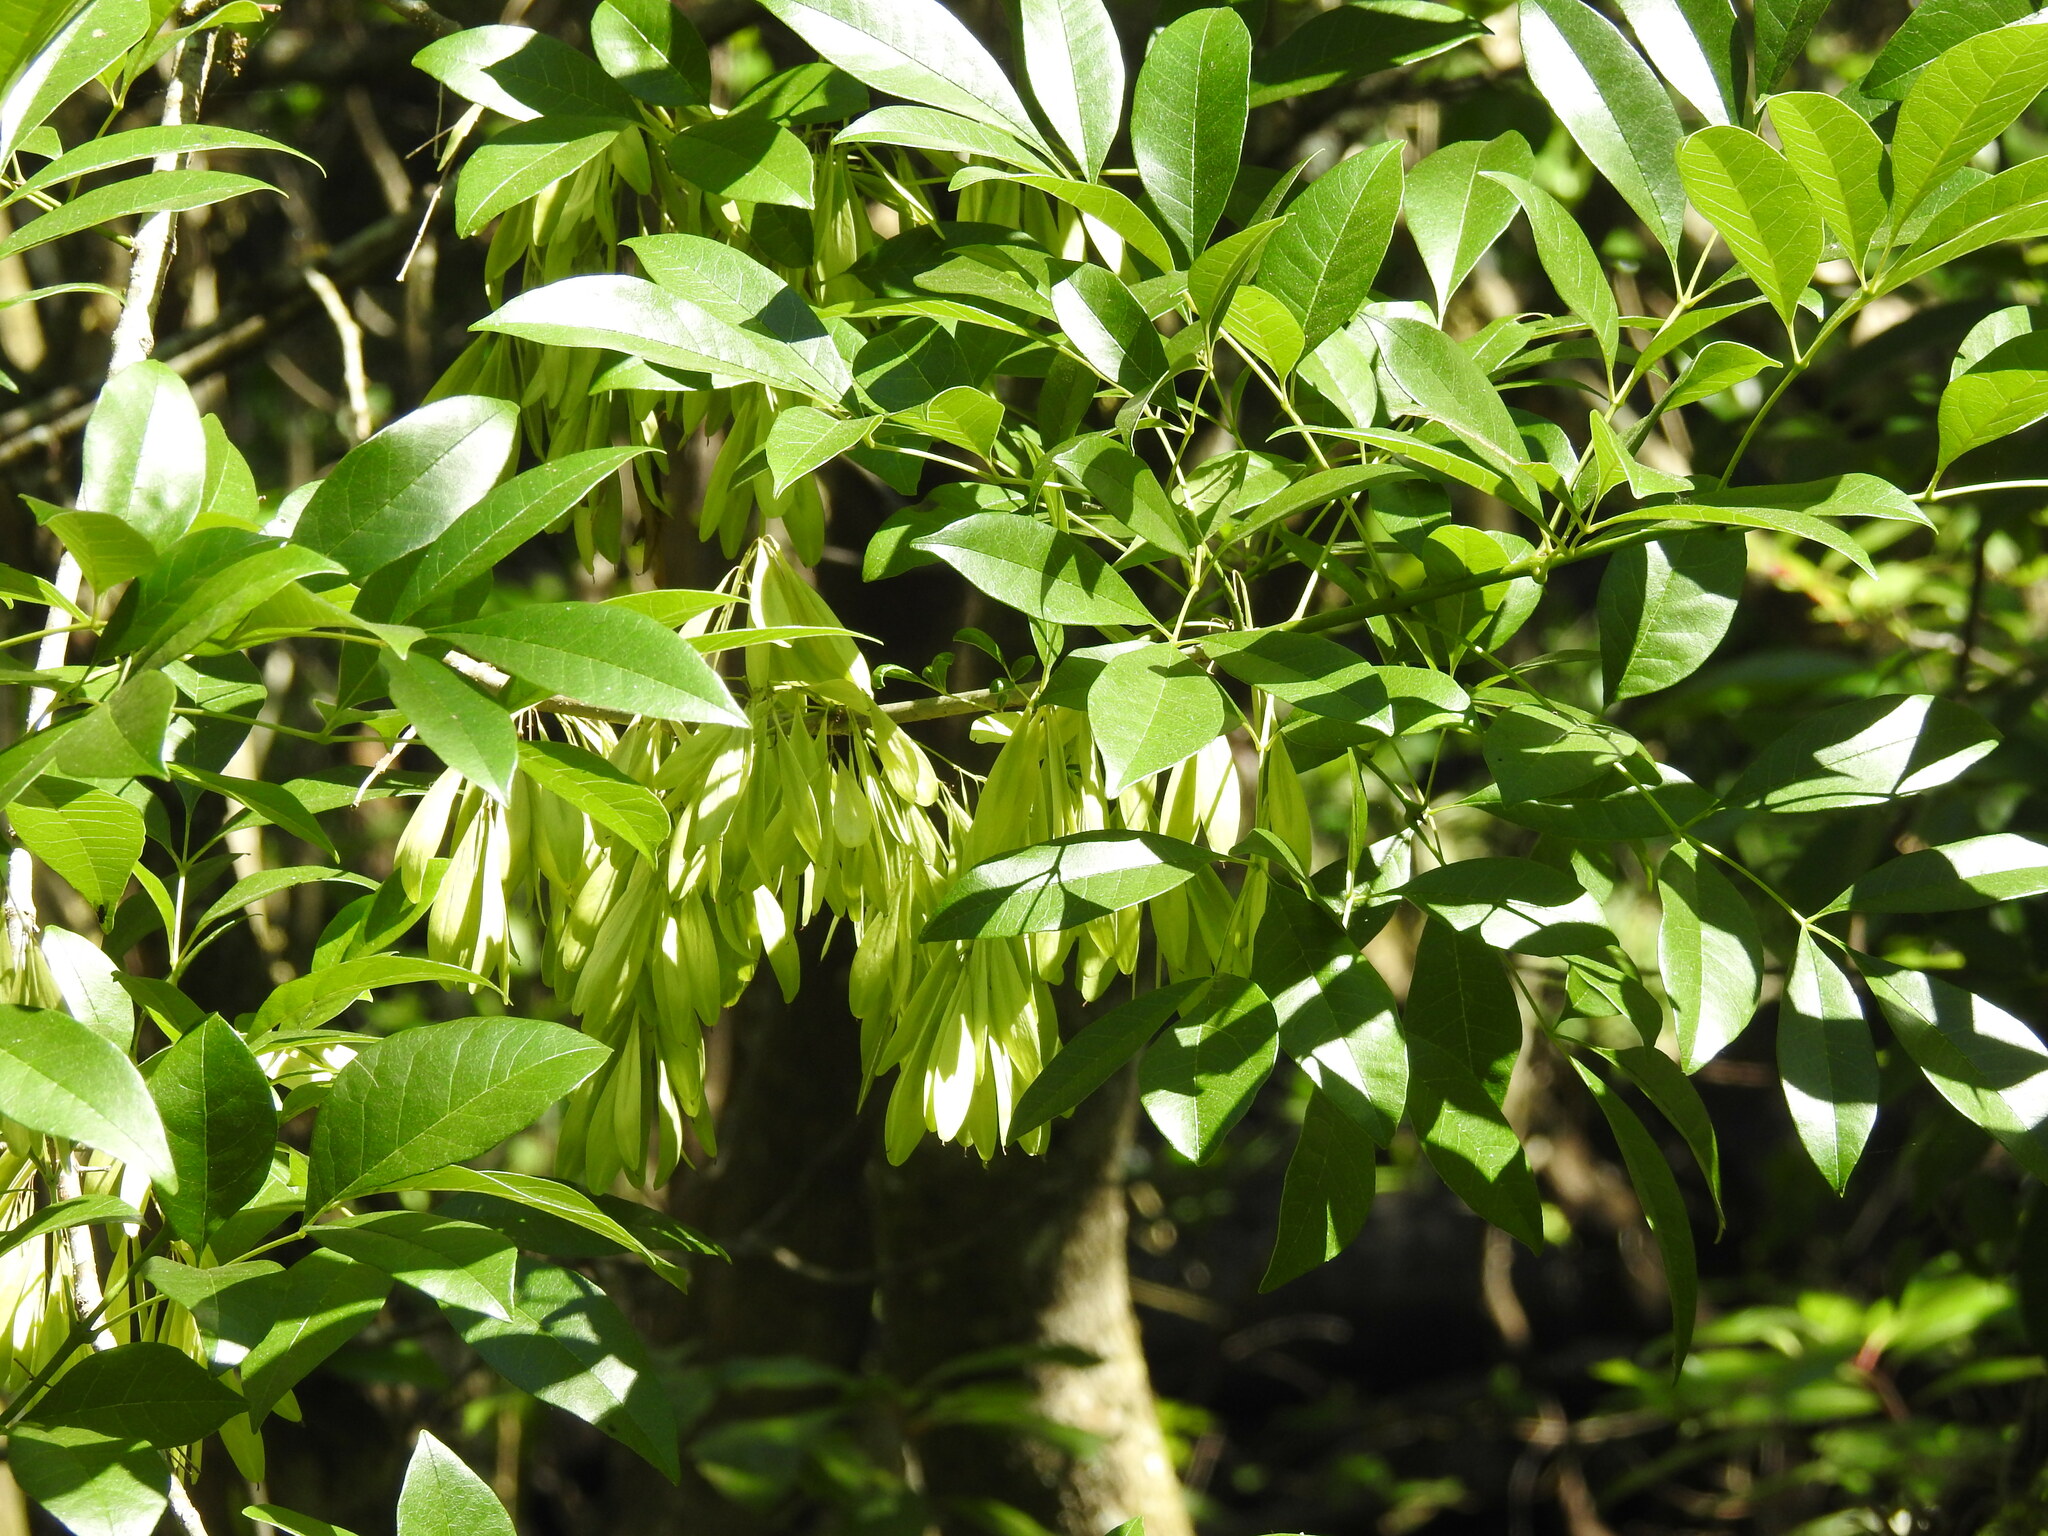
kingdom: Plantae
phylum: Tracheophyta
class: Magnoliopsida
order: Lamiales
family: Oleaceae
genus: Fraxinus
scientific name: Fraxinus caroliniana
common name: Carolina ash
